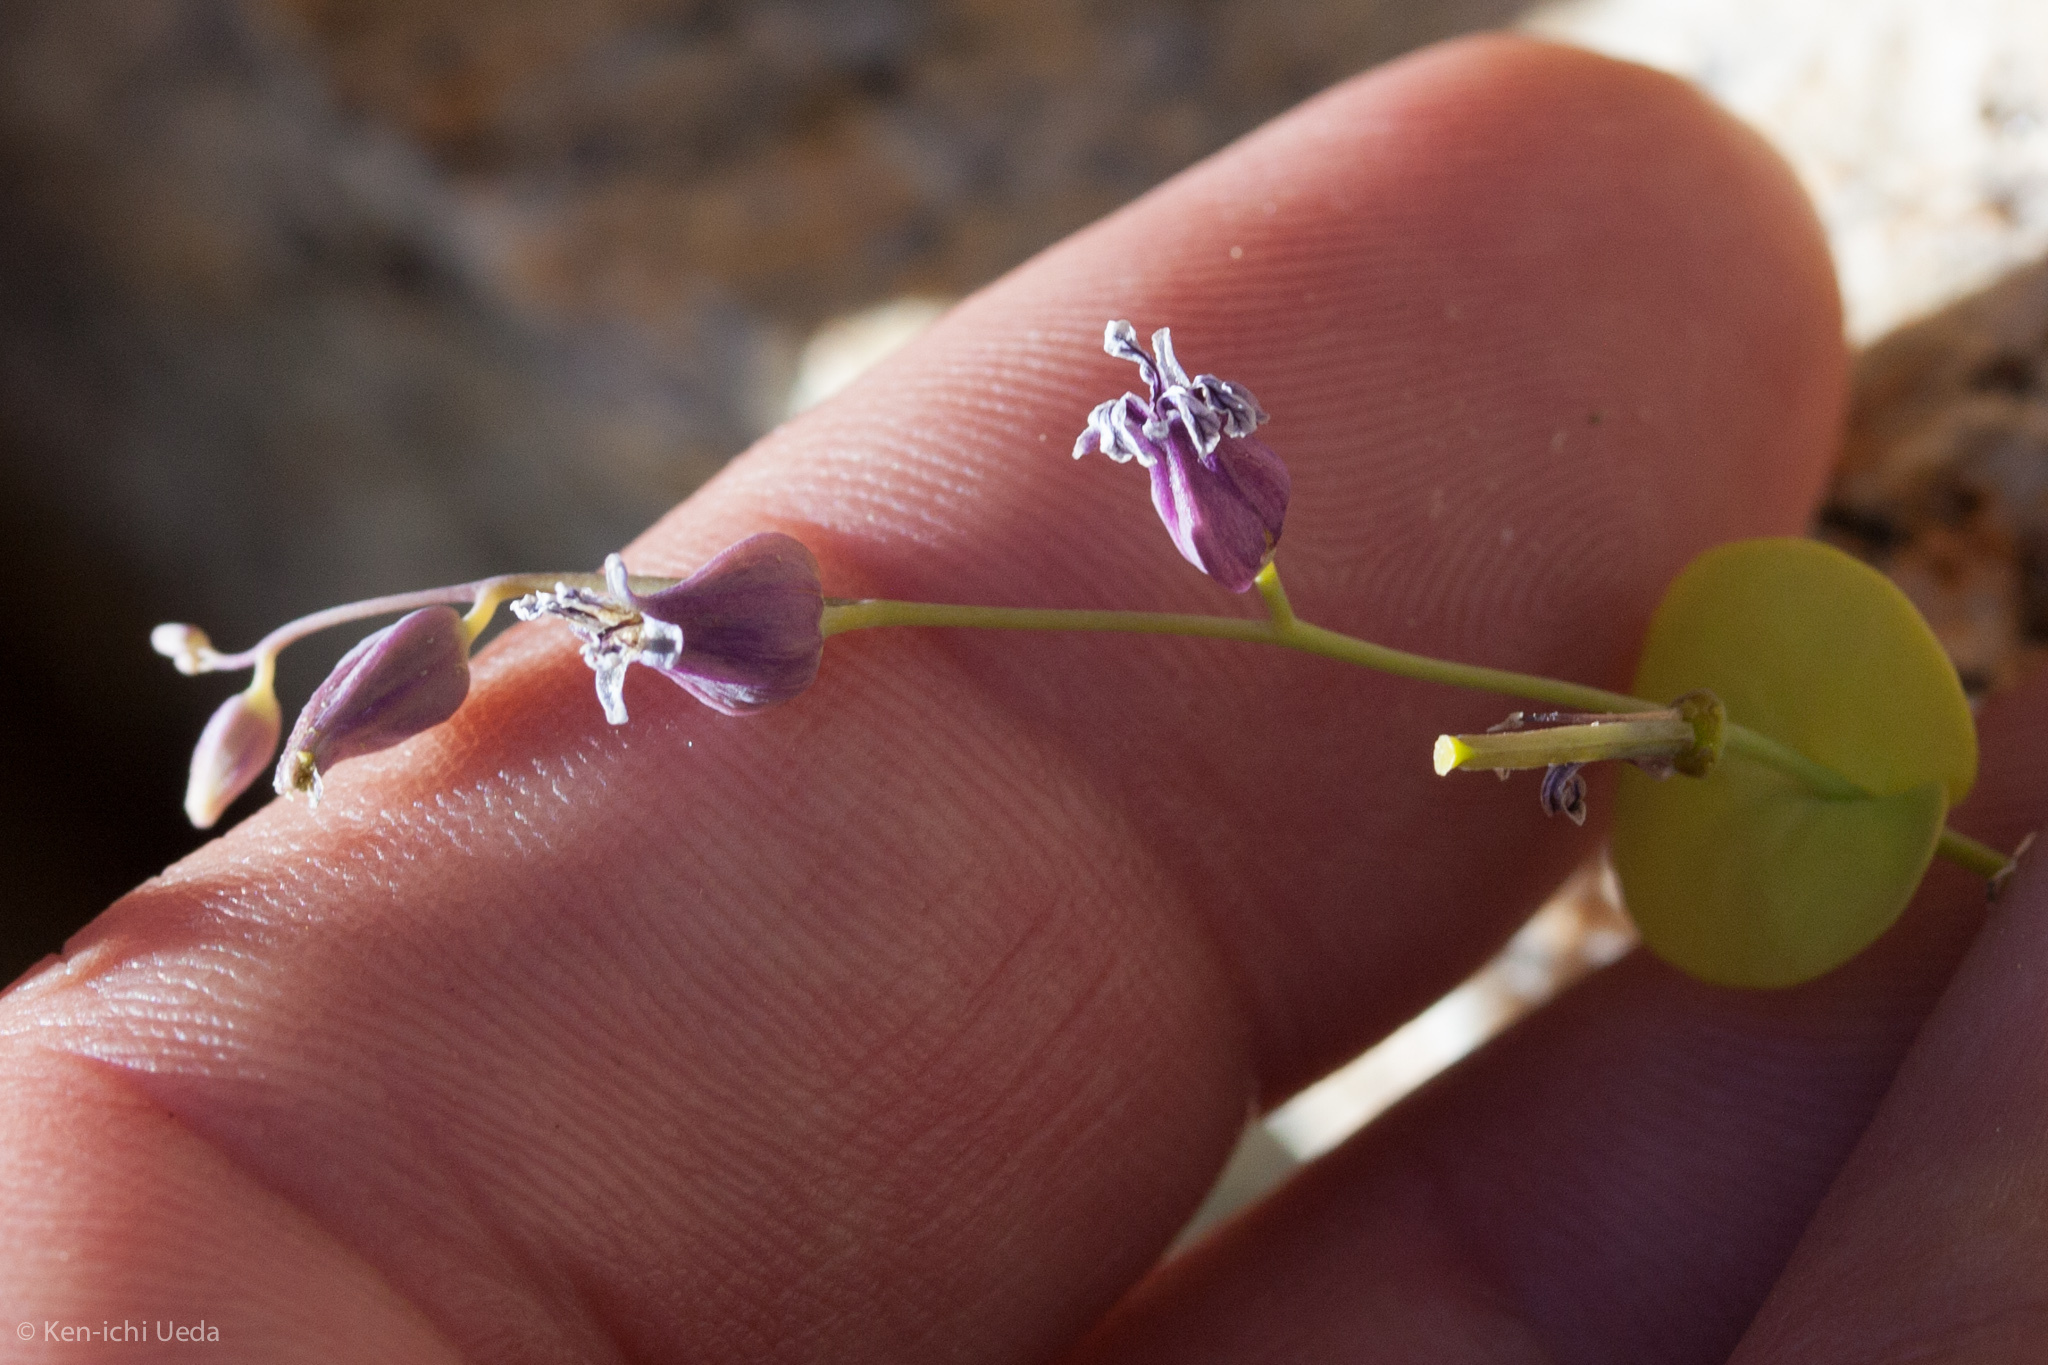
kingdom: Plantae
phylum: Tracheophyta
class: Magnoliopsida
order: Brassicales
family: Brassicaceae
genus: Streptanthus
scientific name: Streptanthus tortuosus
